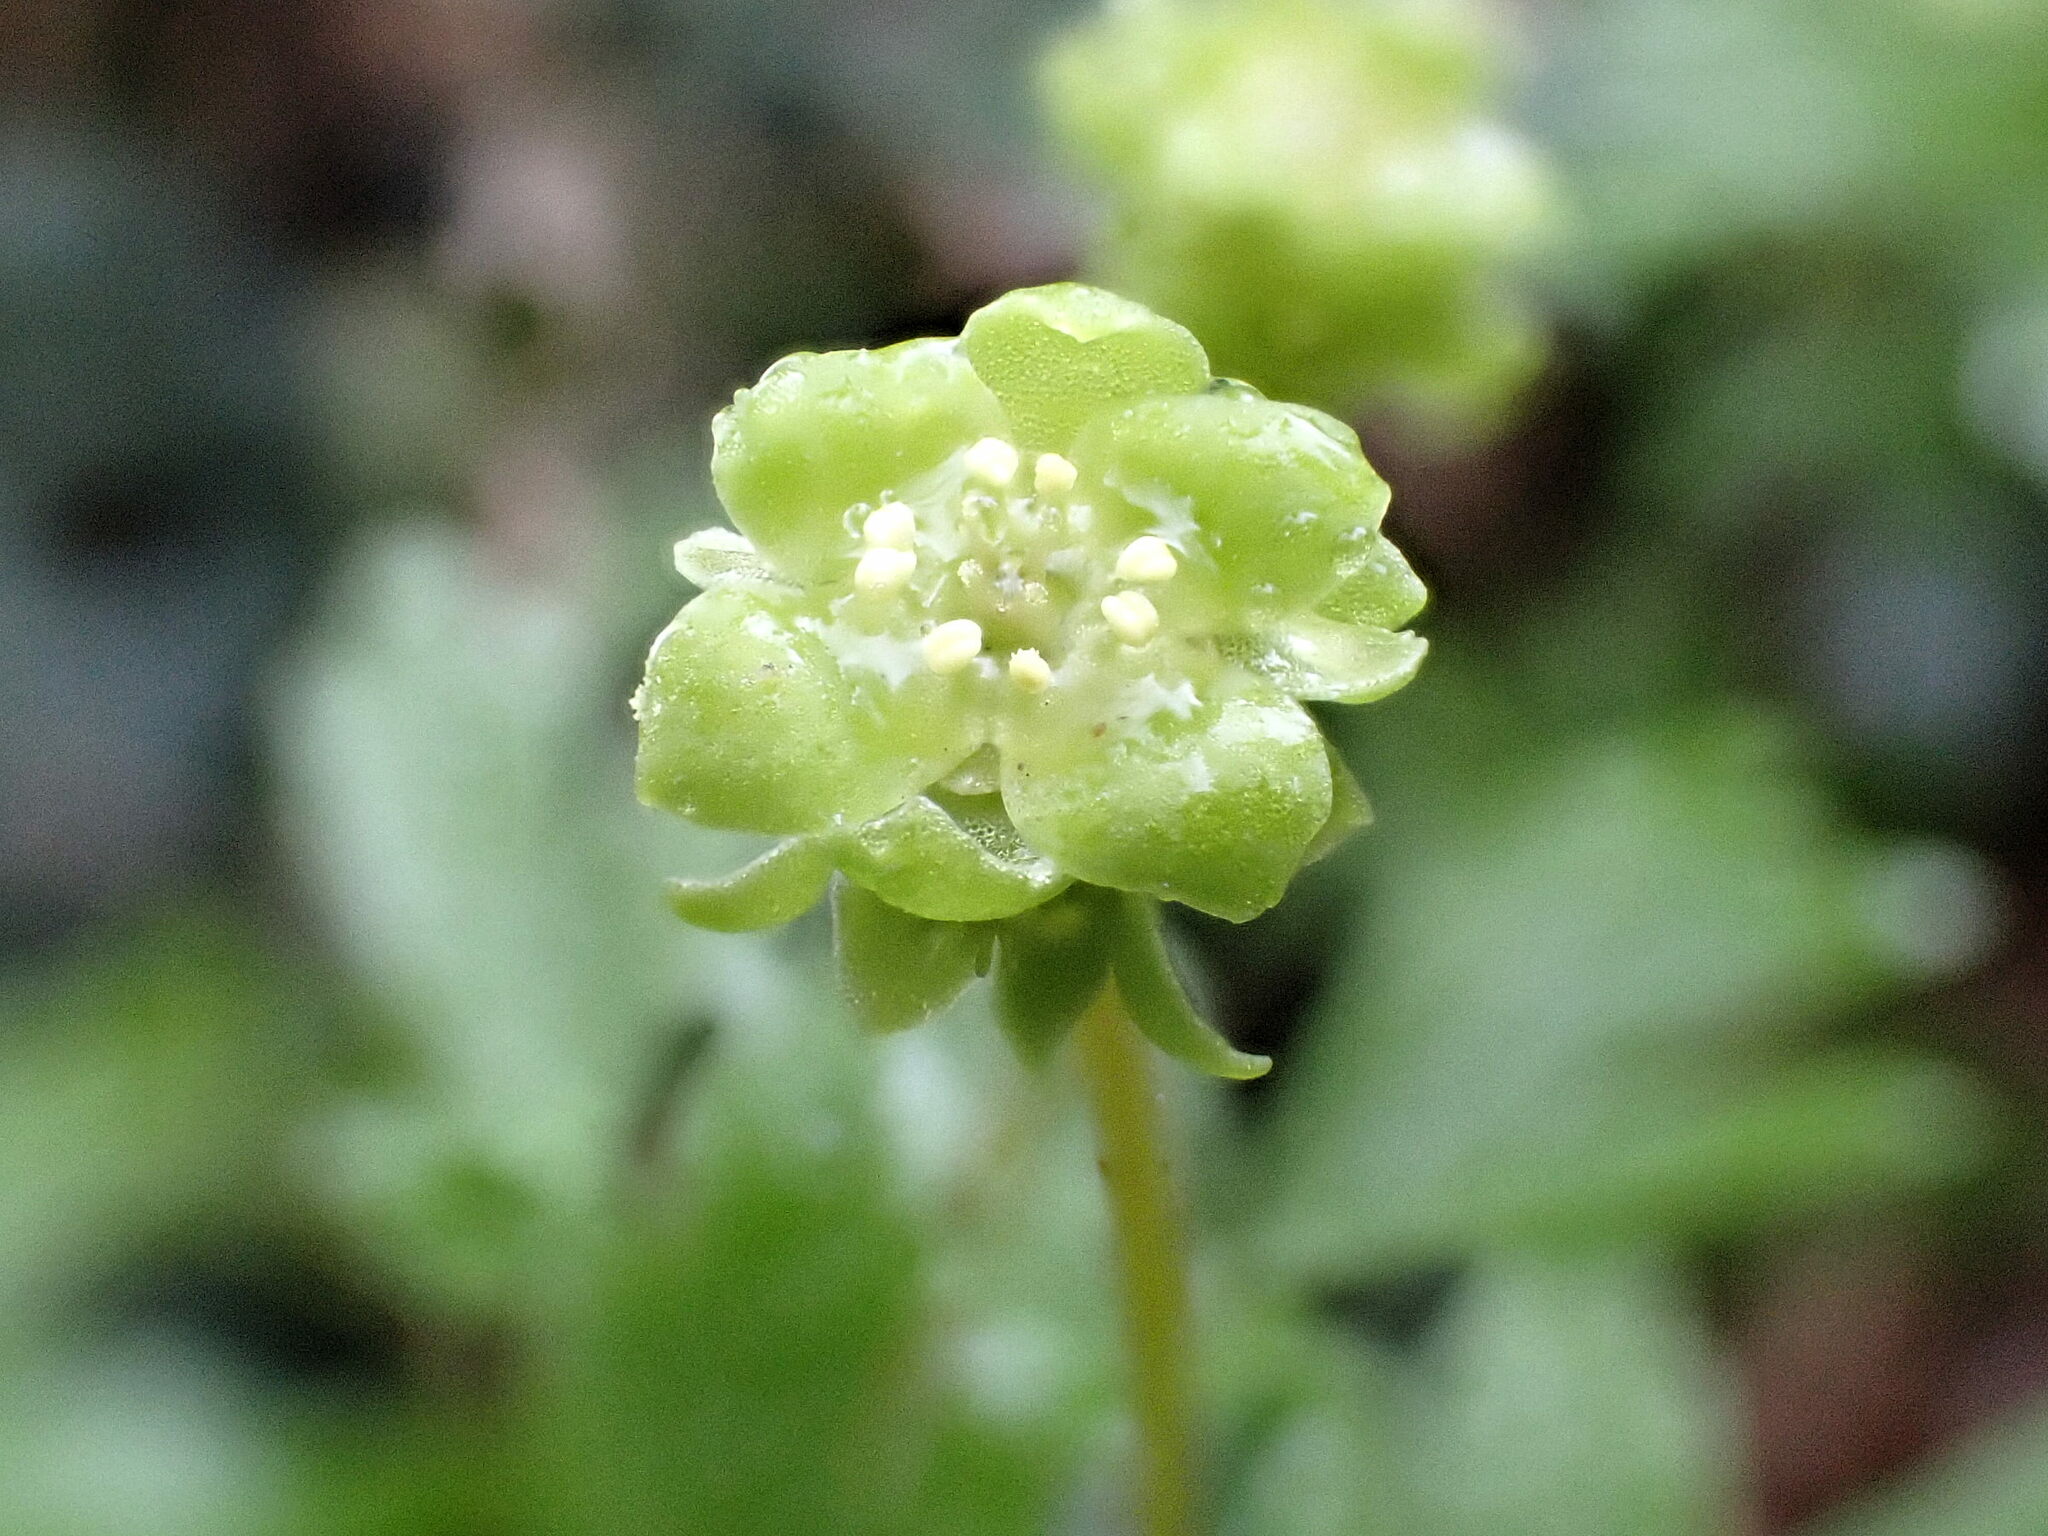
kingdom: Plantae
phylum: Tracheophyta
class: Magnoliopsida
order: Dipsacales
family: Viburnaceae
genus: Adoxa
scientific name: Adoxa moschatellina
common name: Moschatel
